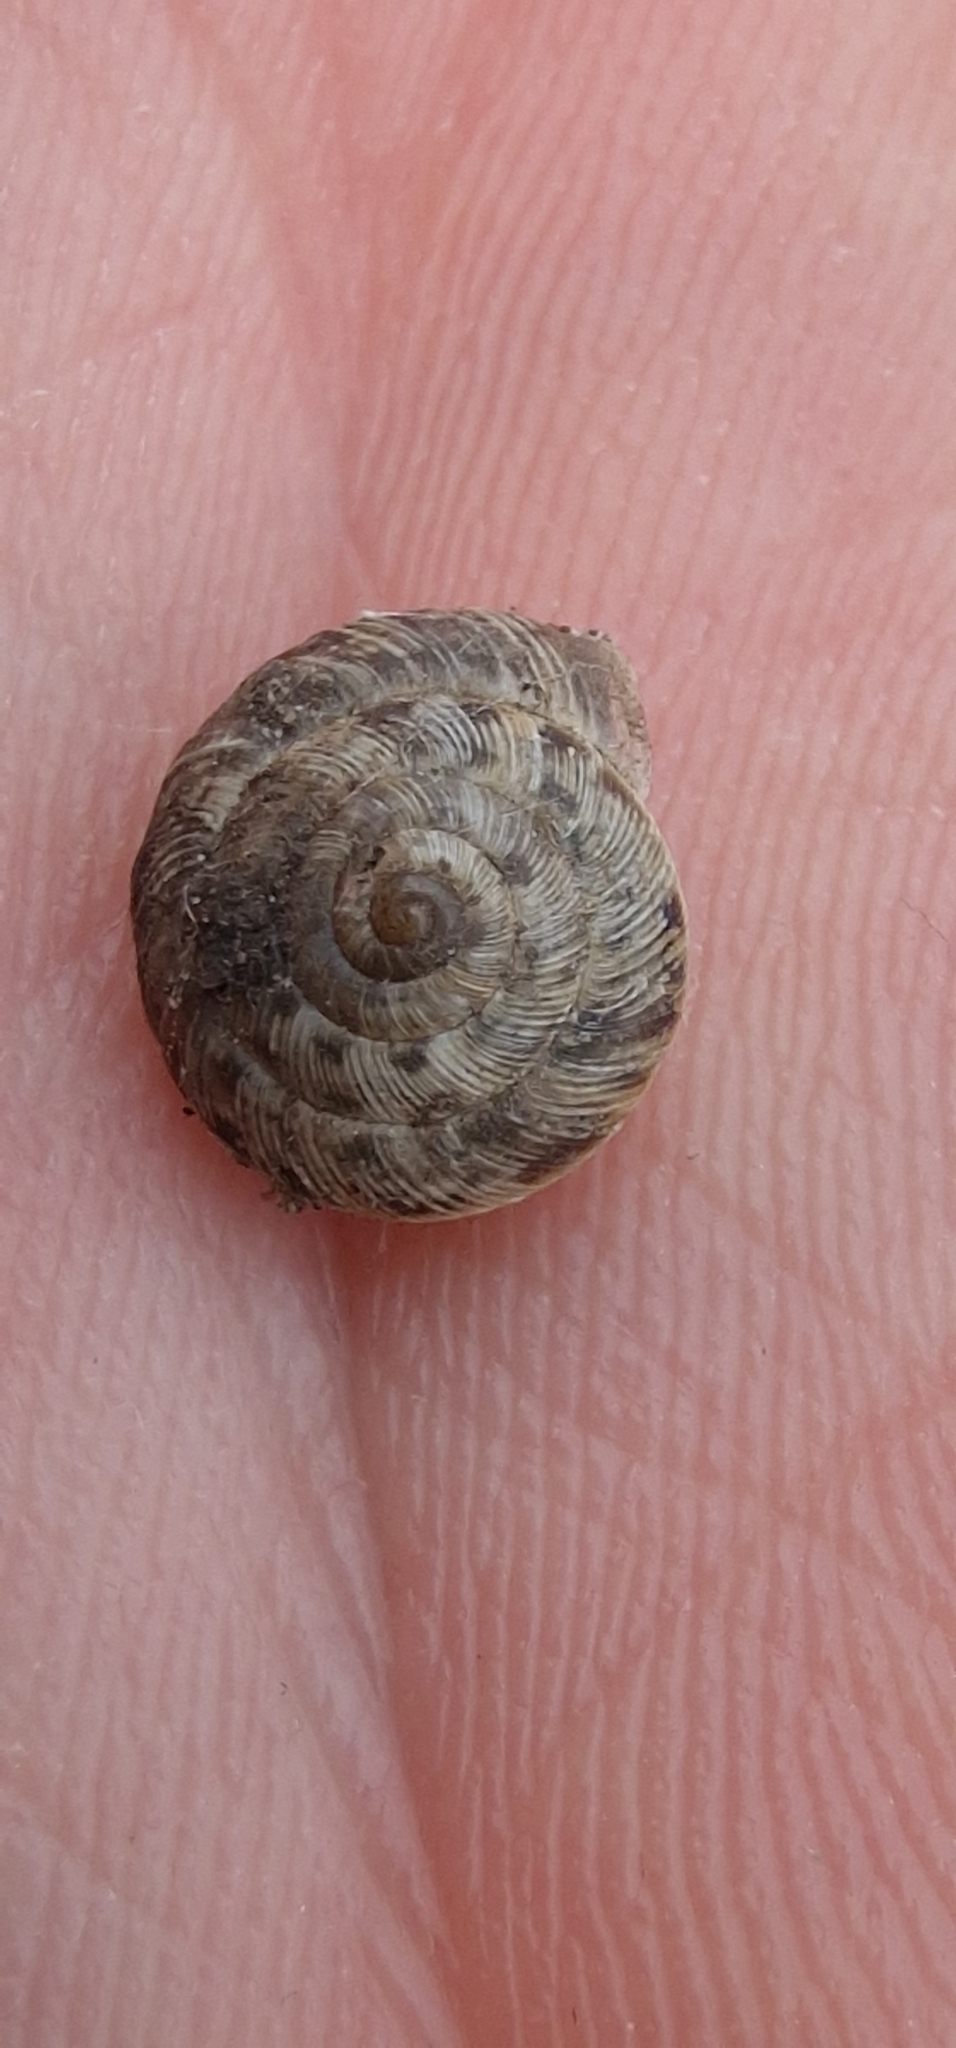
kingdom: Animalia
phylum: Mollusca
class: Gastropoda
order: Stylommatophora
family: Geomitridae
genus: Xeroplexa
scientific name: Xeroplexa intersecta
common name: Wrinkled snail
